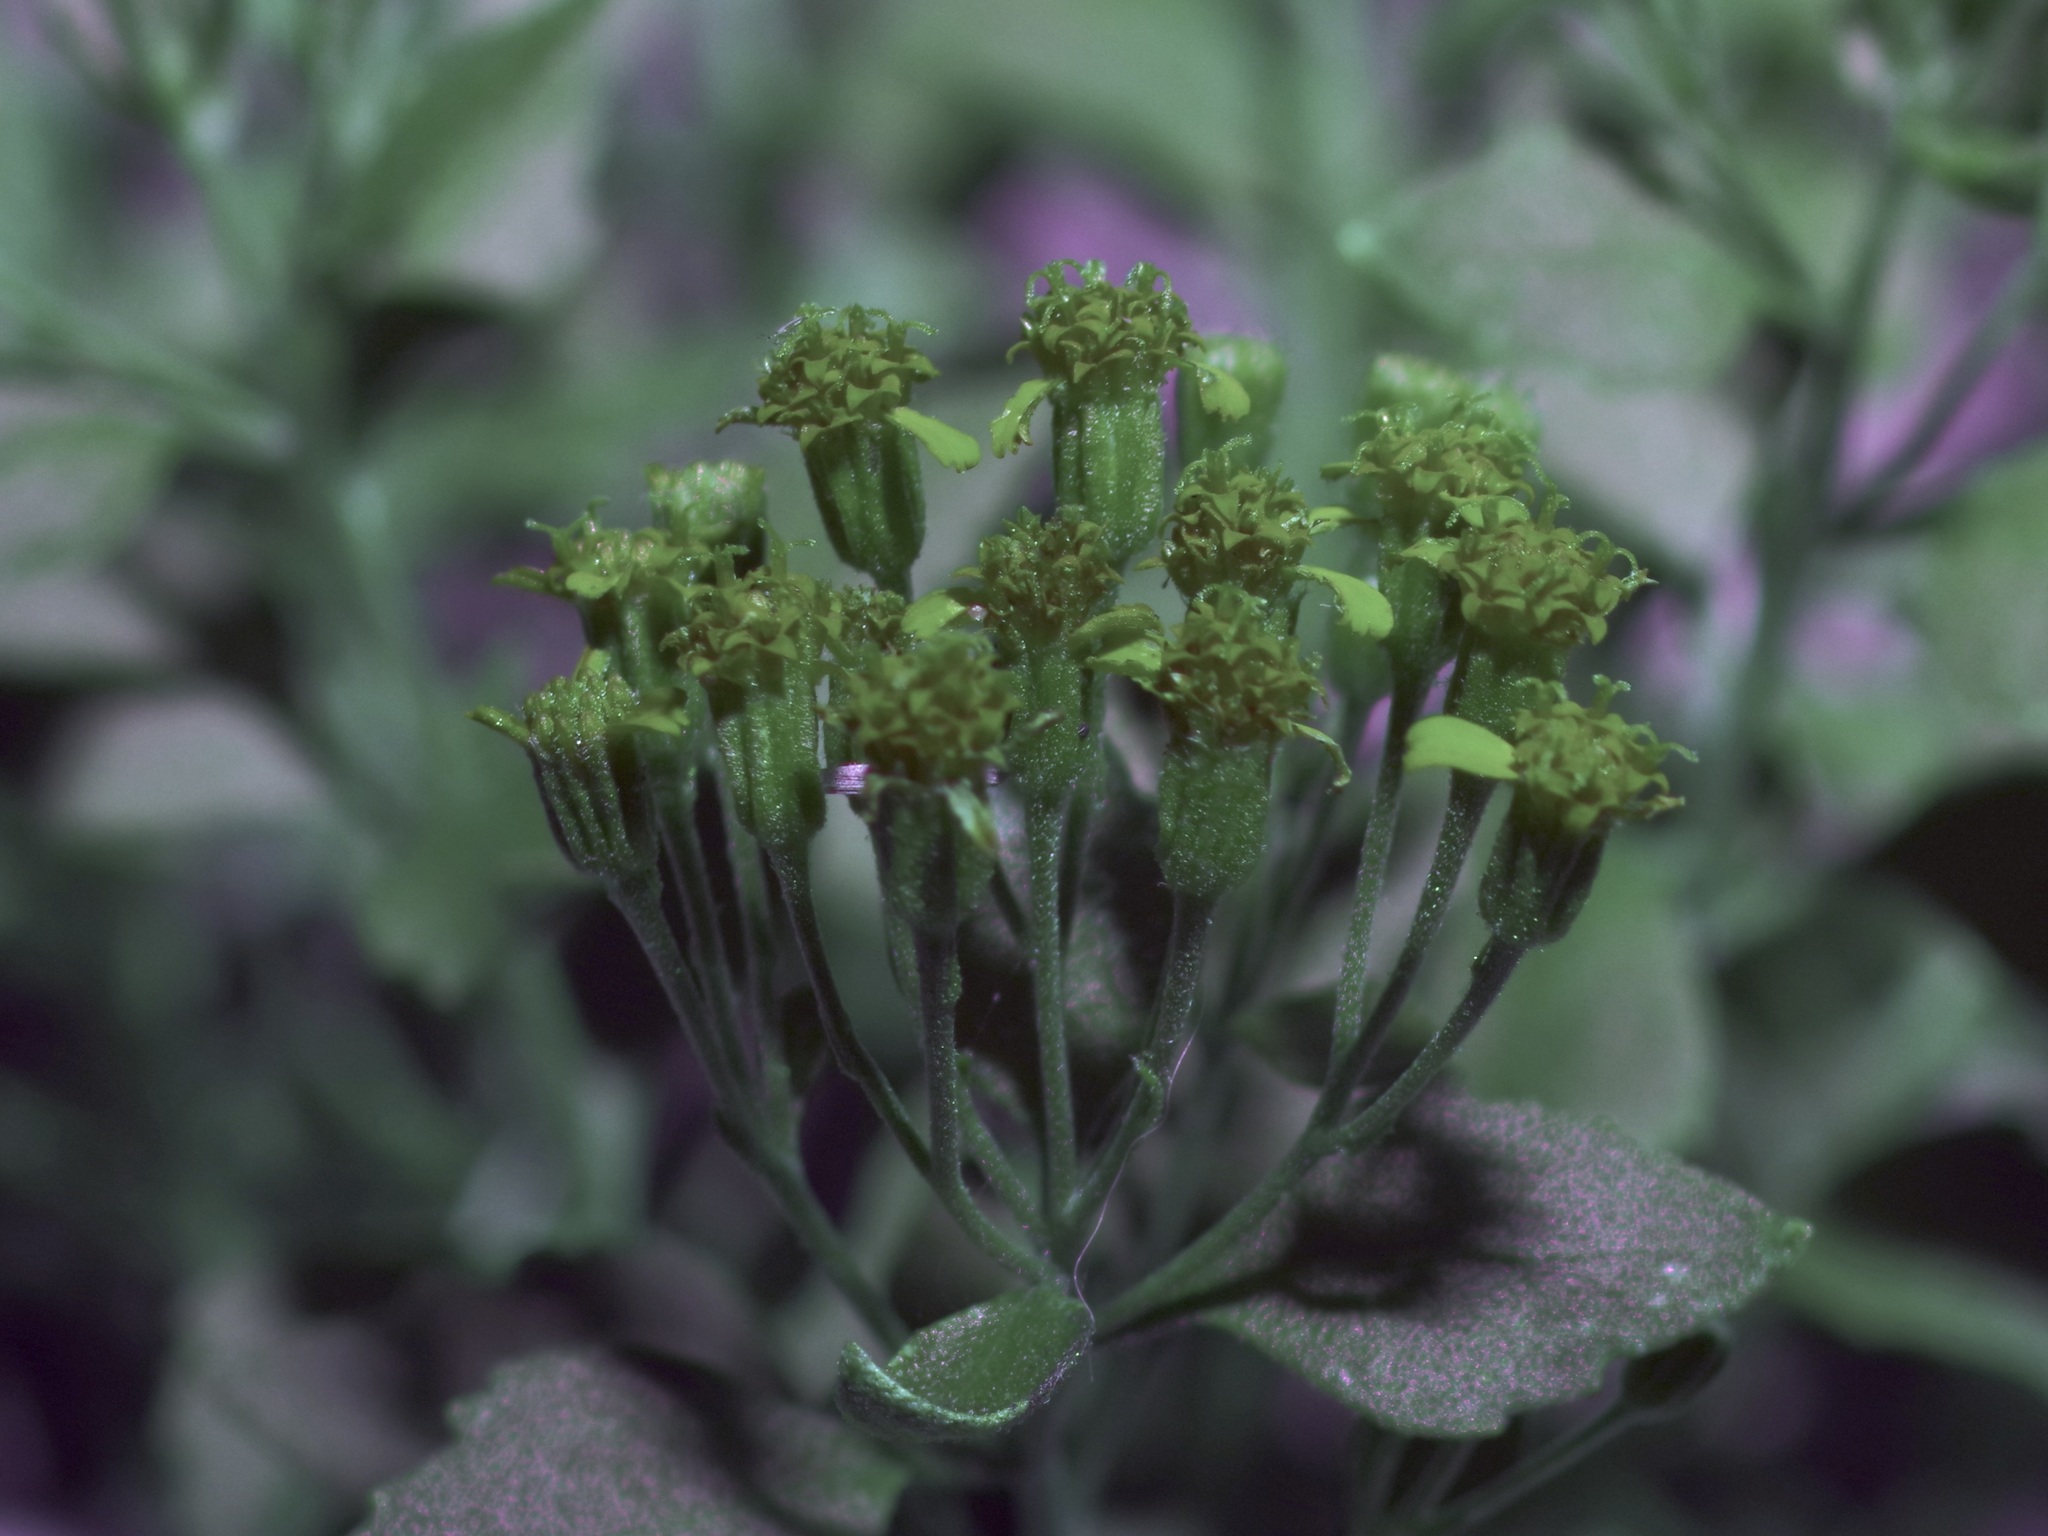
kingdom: Plantae
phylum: Tracheophyta
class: Magnoliopsida
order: Asterales
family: Asteraceae
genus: Laphamia
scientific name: Laphamia lindheimeri
